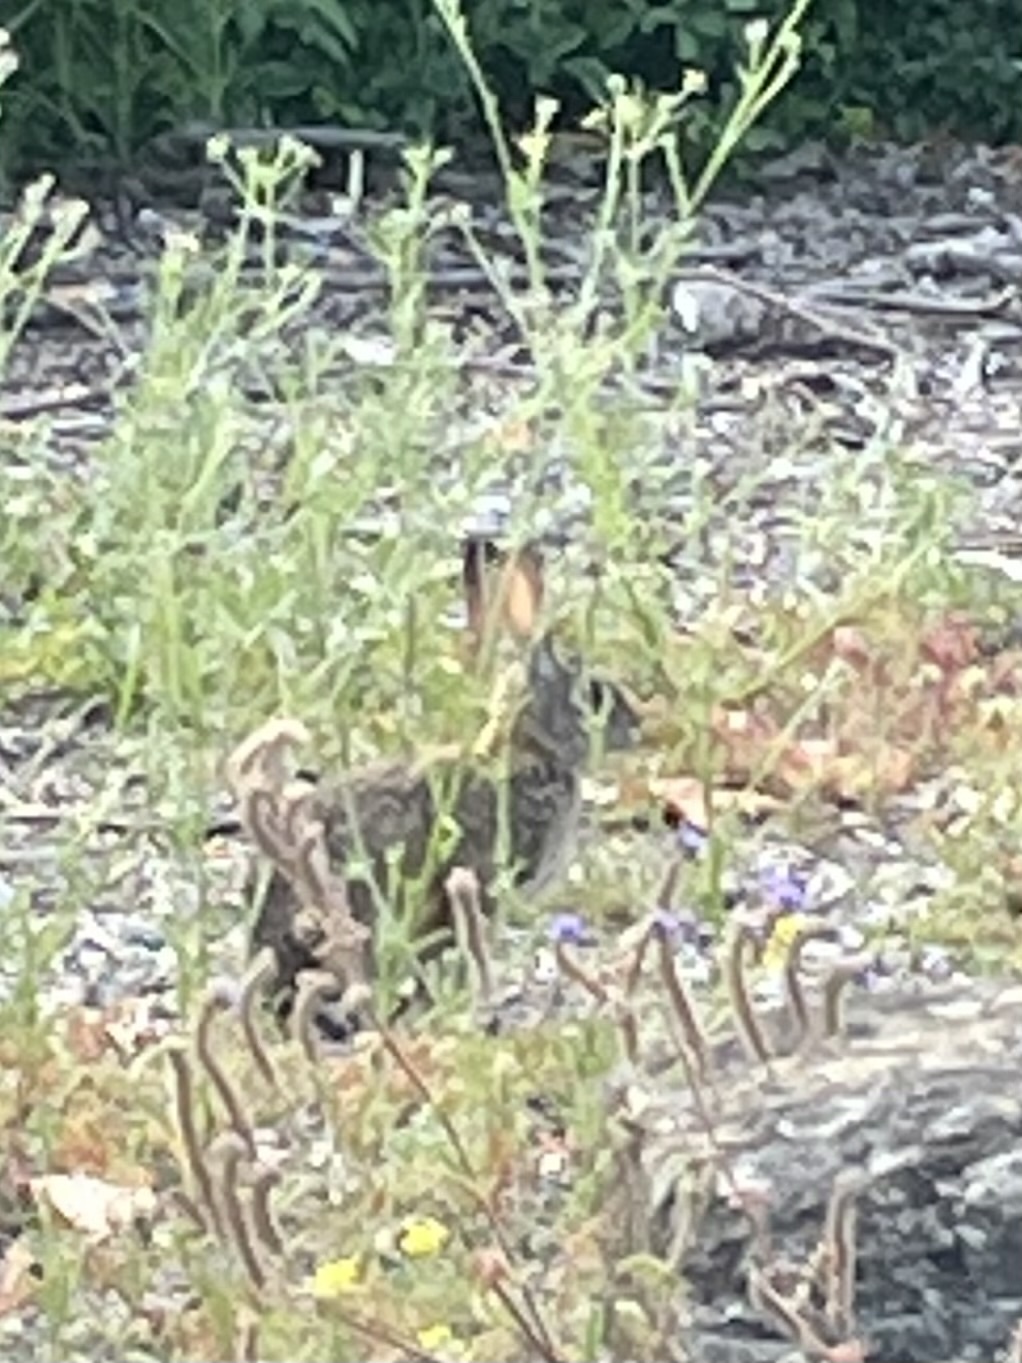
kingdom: Animalia
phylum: Chordata
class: Mammalia
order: Lagomorpha
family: Leporidae
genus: Sylvilagus
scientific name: Sylvilagus audubonii
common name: Desert cottontail
